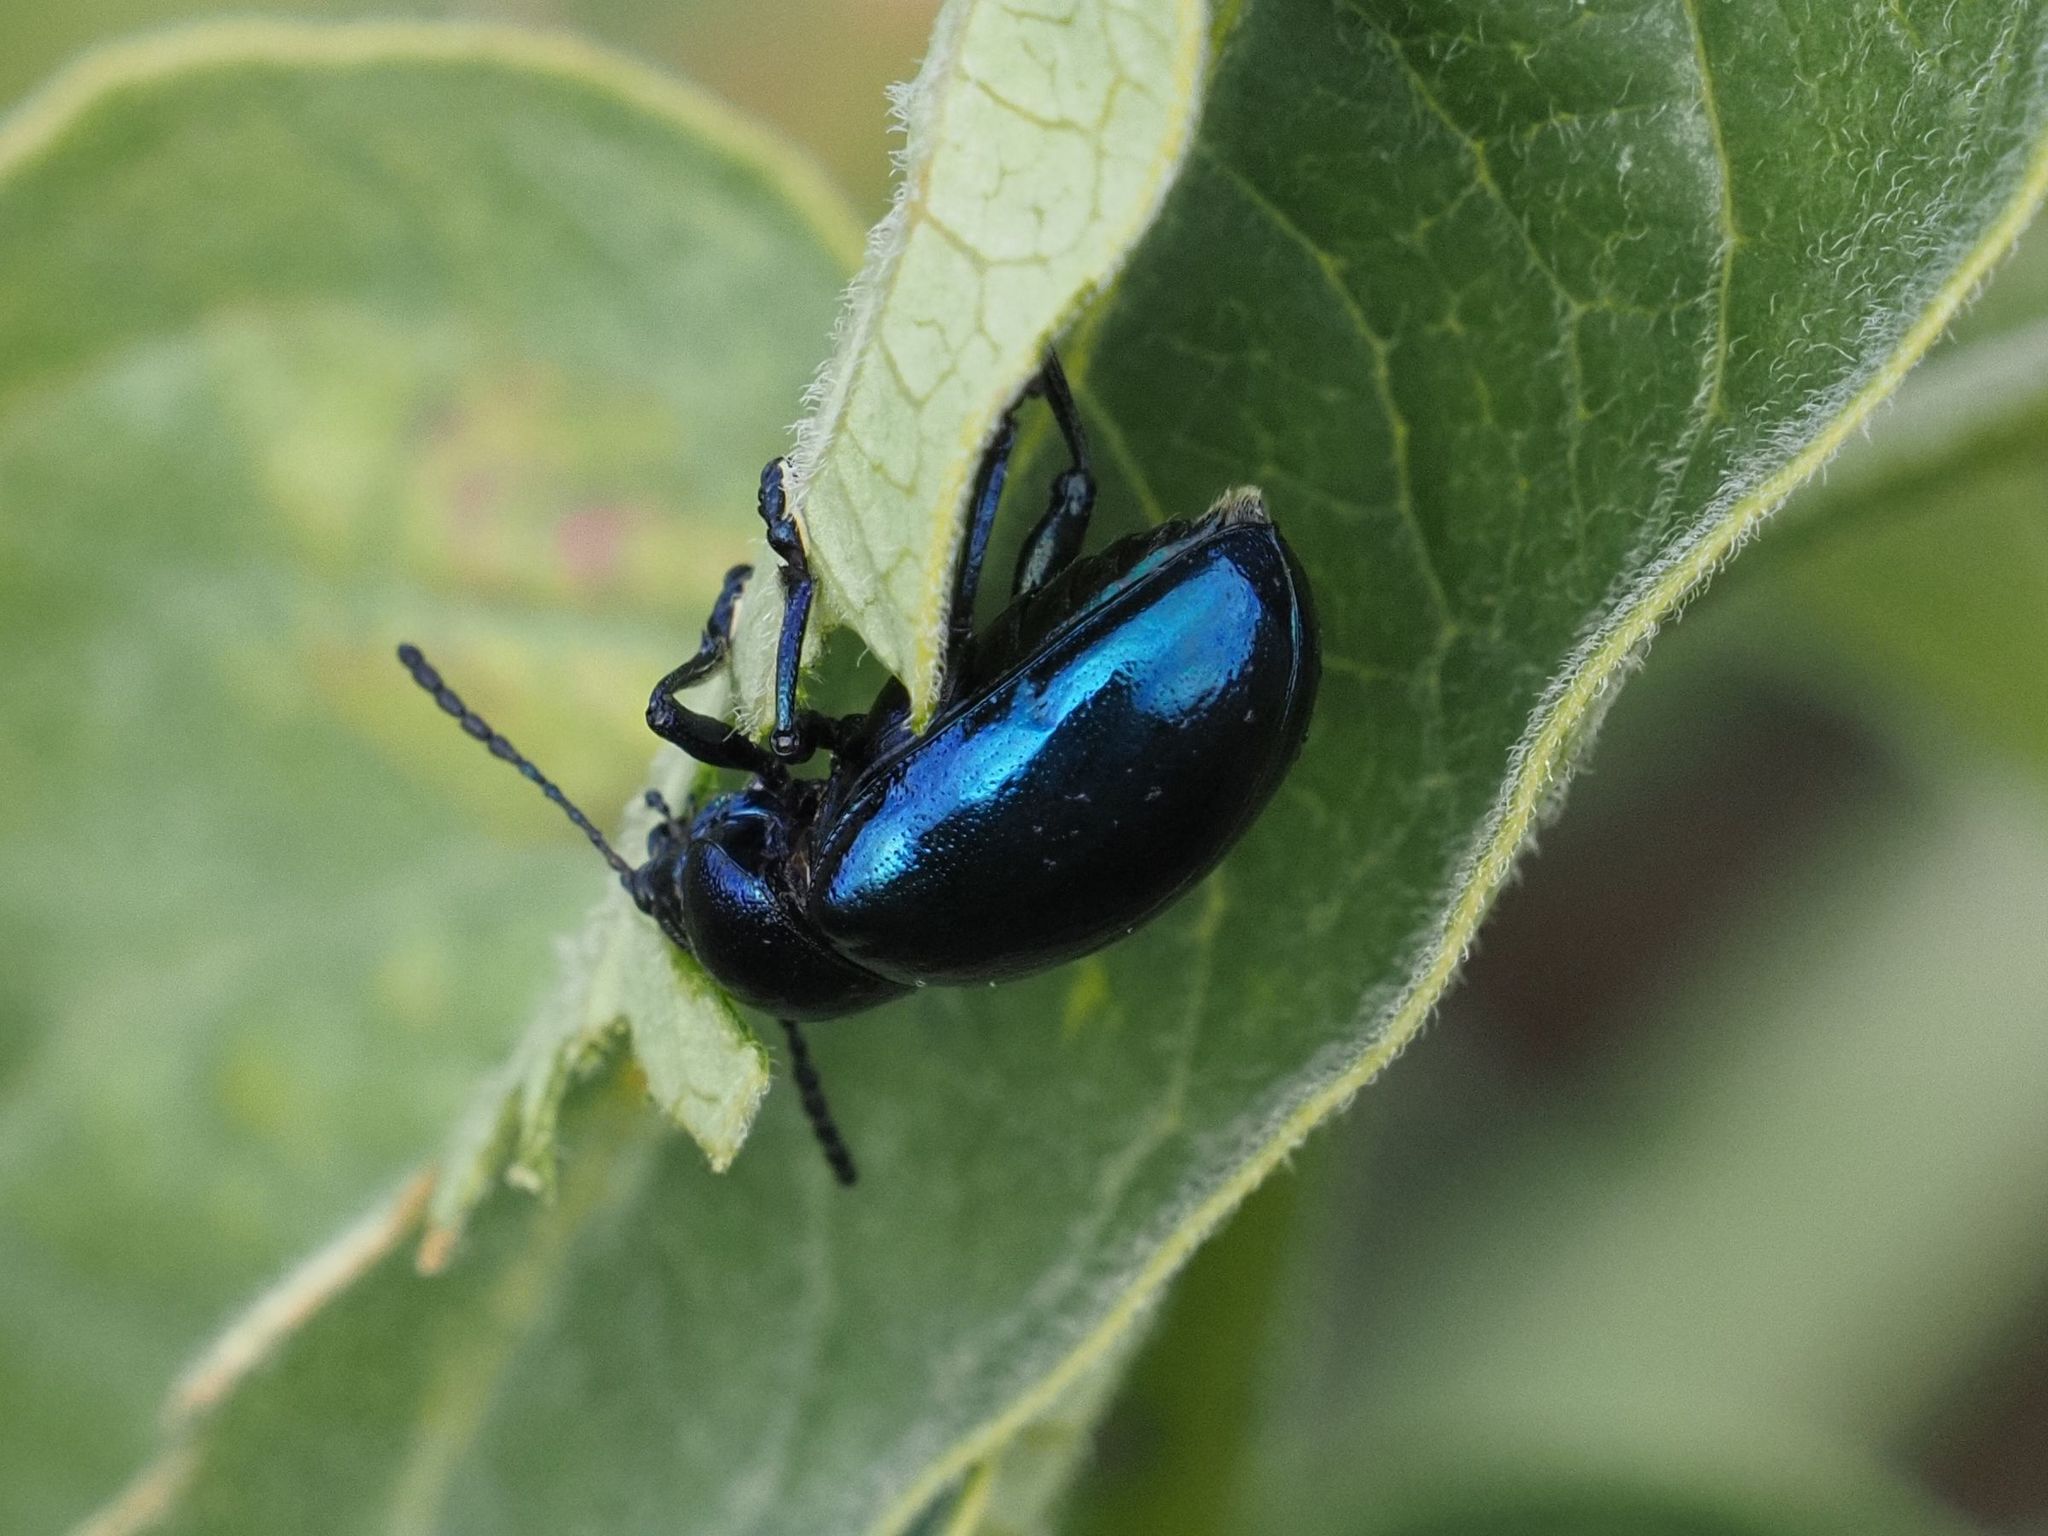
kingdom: Animalia
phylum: Arthropoda
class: Insecta
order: Coleoptera
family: Chrysomelidae
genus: Chrysochus
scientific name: Chrysochus asclepiadeus
